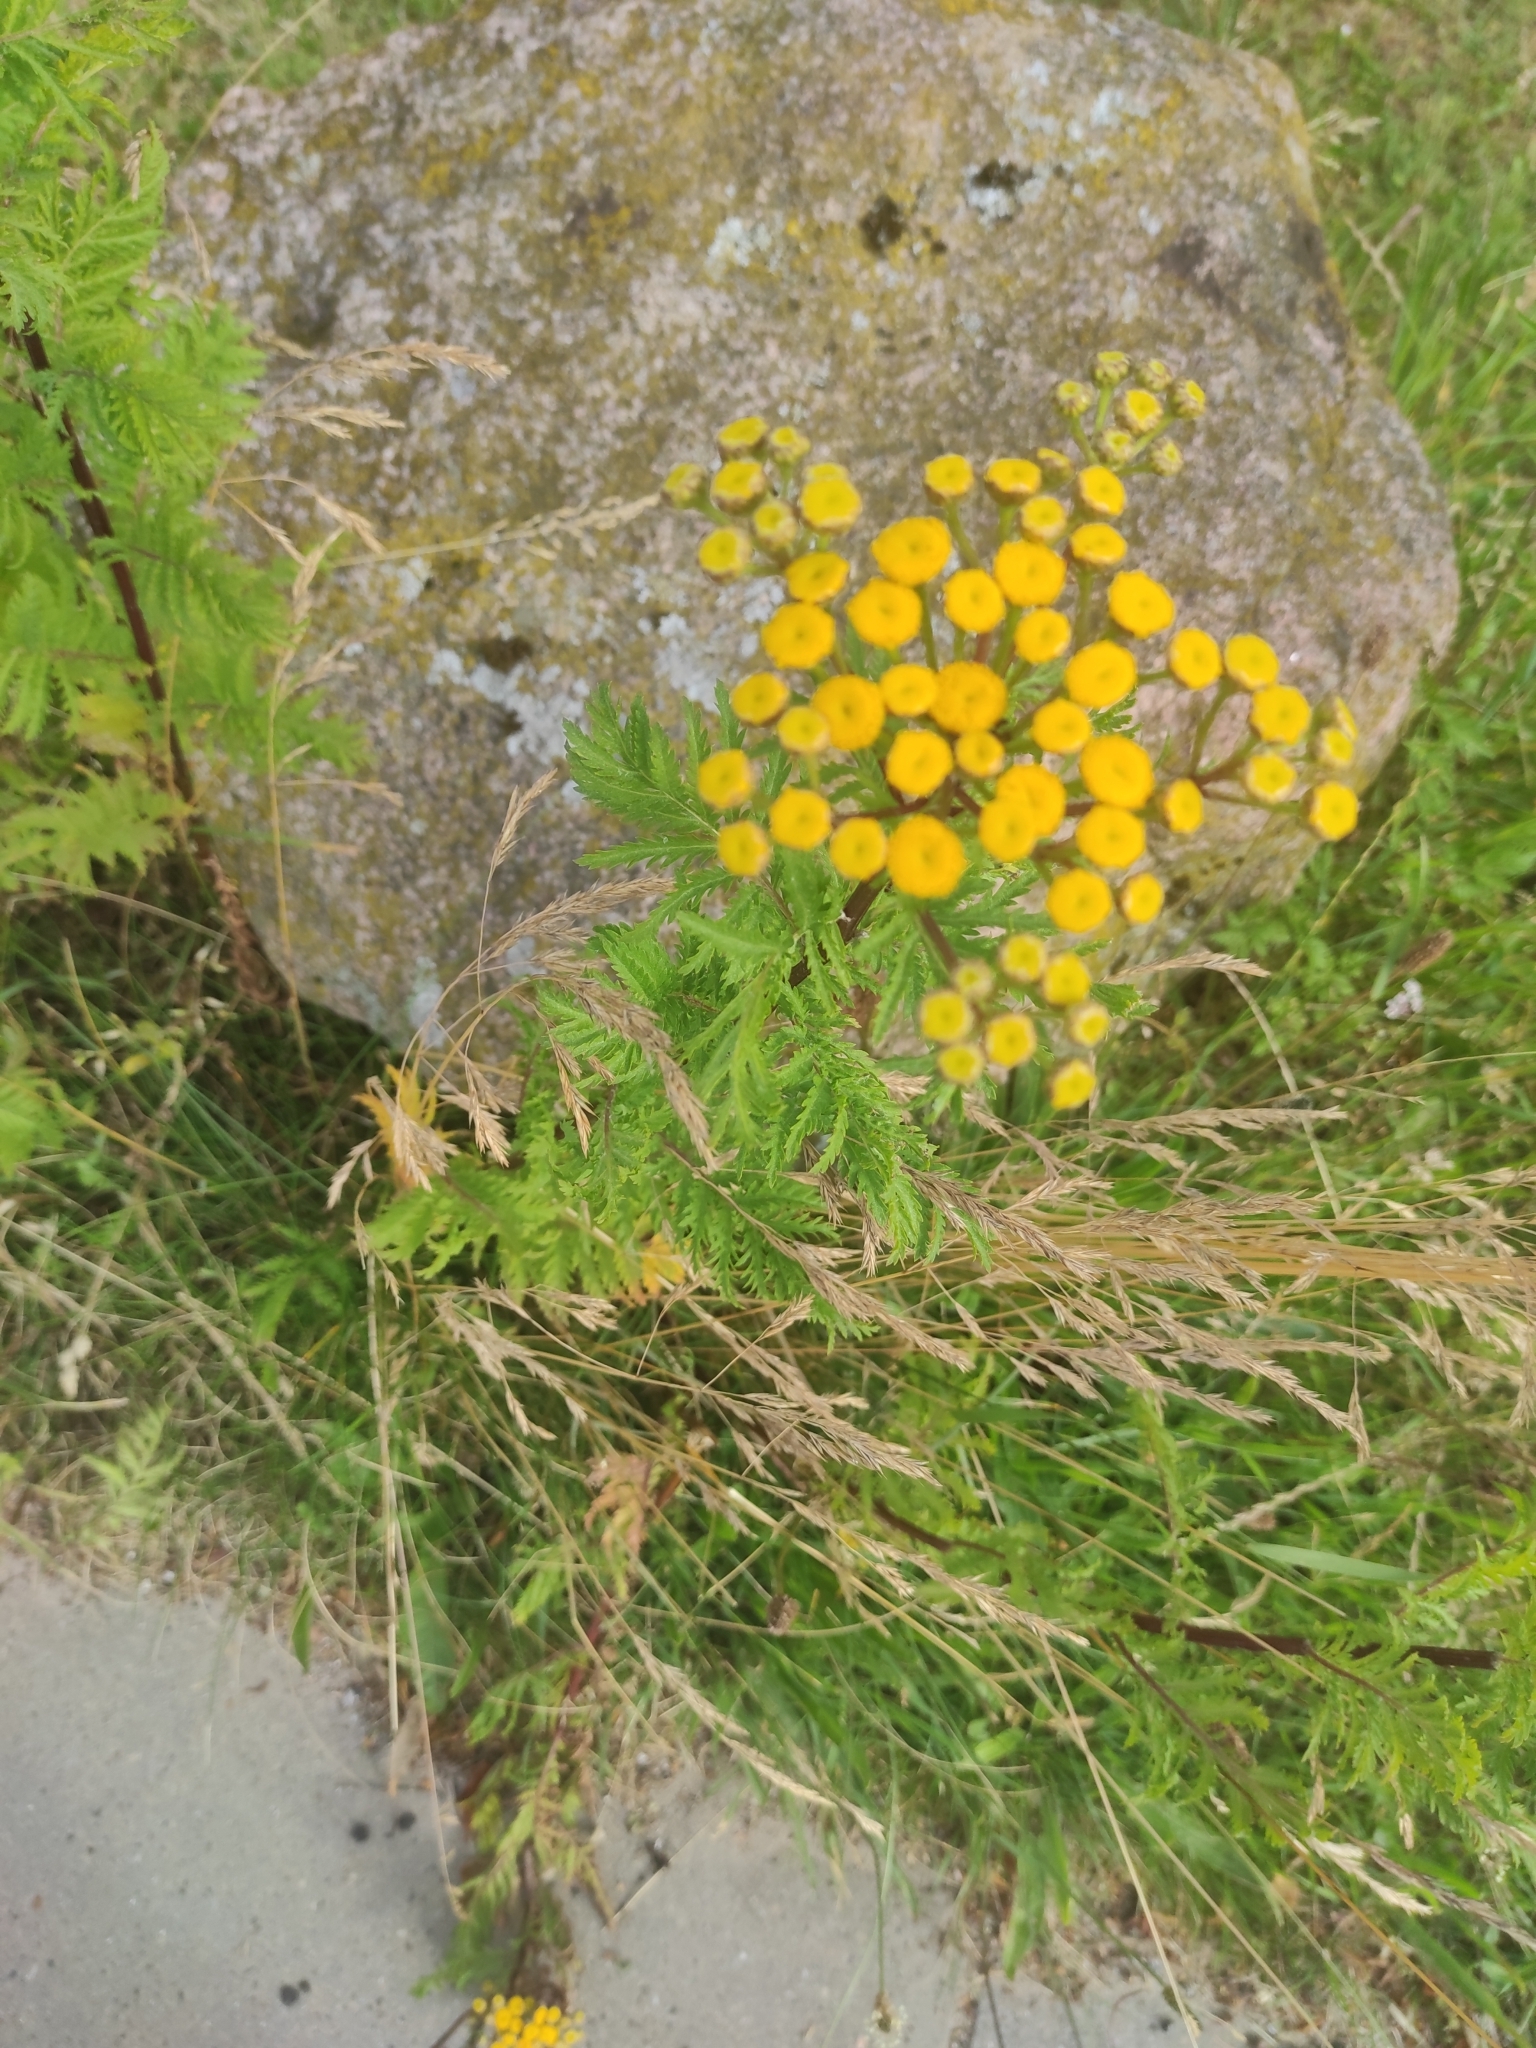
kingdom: Plantae
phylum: Tracheophyta
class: Magnoliopsida
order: Asterales
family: Asteraceae
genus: Tanacetum
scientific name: Tanacetum vulgare
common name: Common tansy
